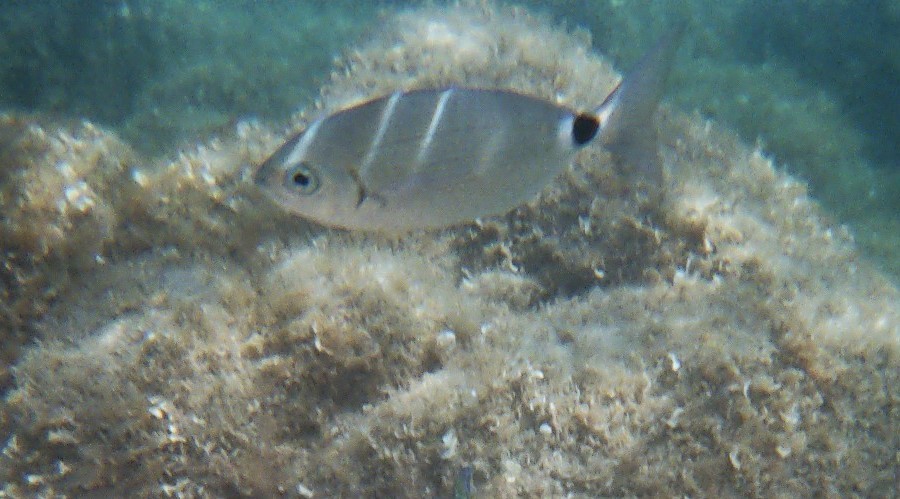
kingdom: Animalia
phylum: Chordata
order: Perciformes
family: Sparidae
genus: Oblada
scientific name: Oblada melanura
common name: Saddled seabream
